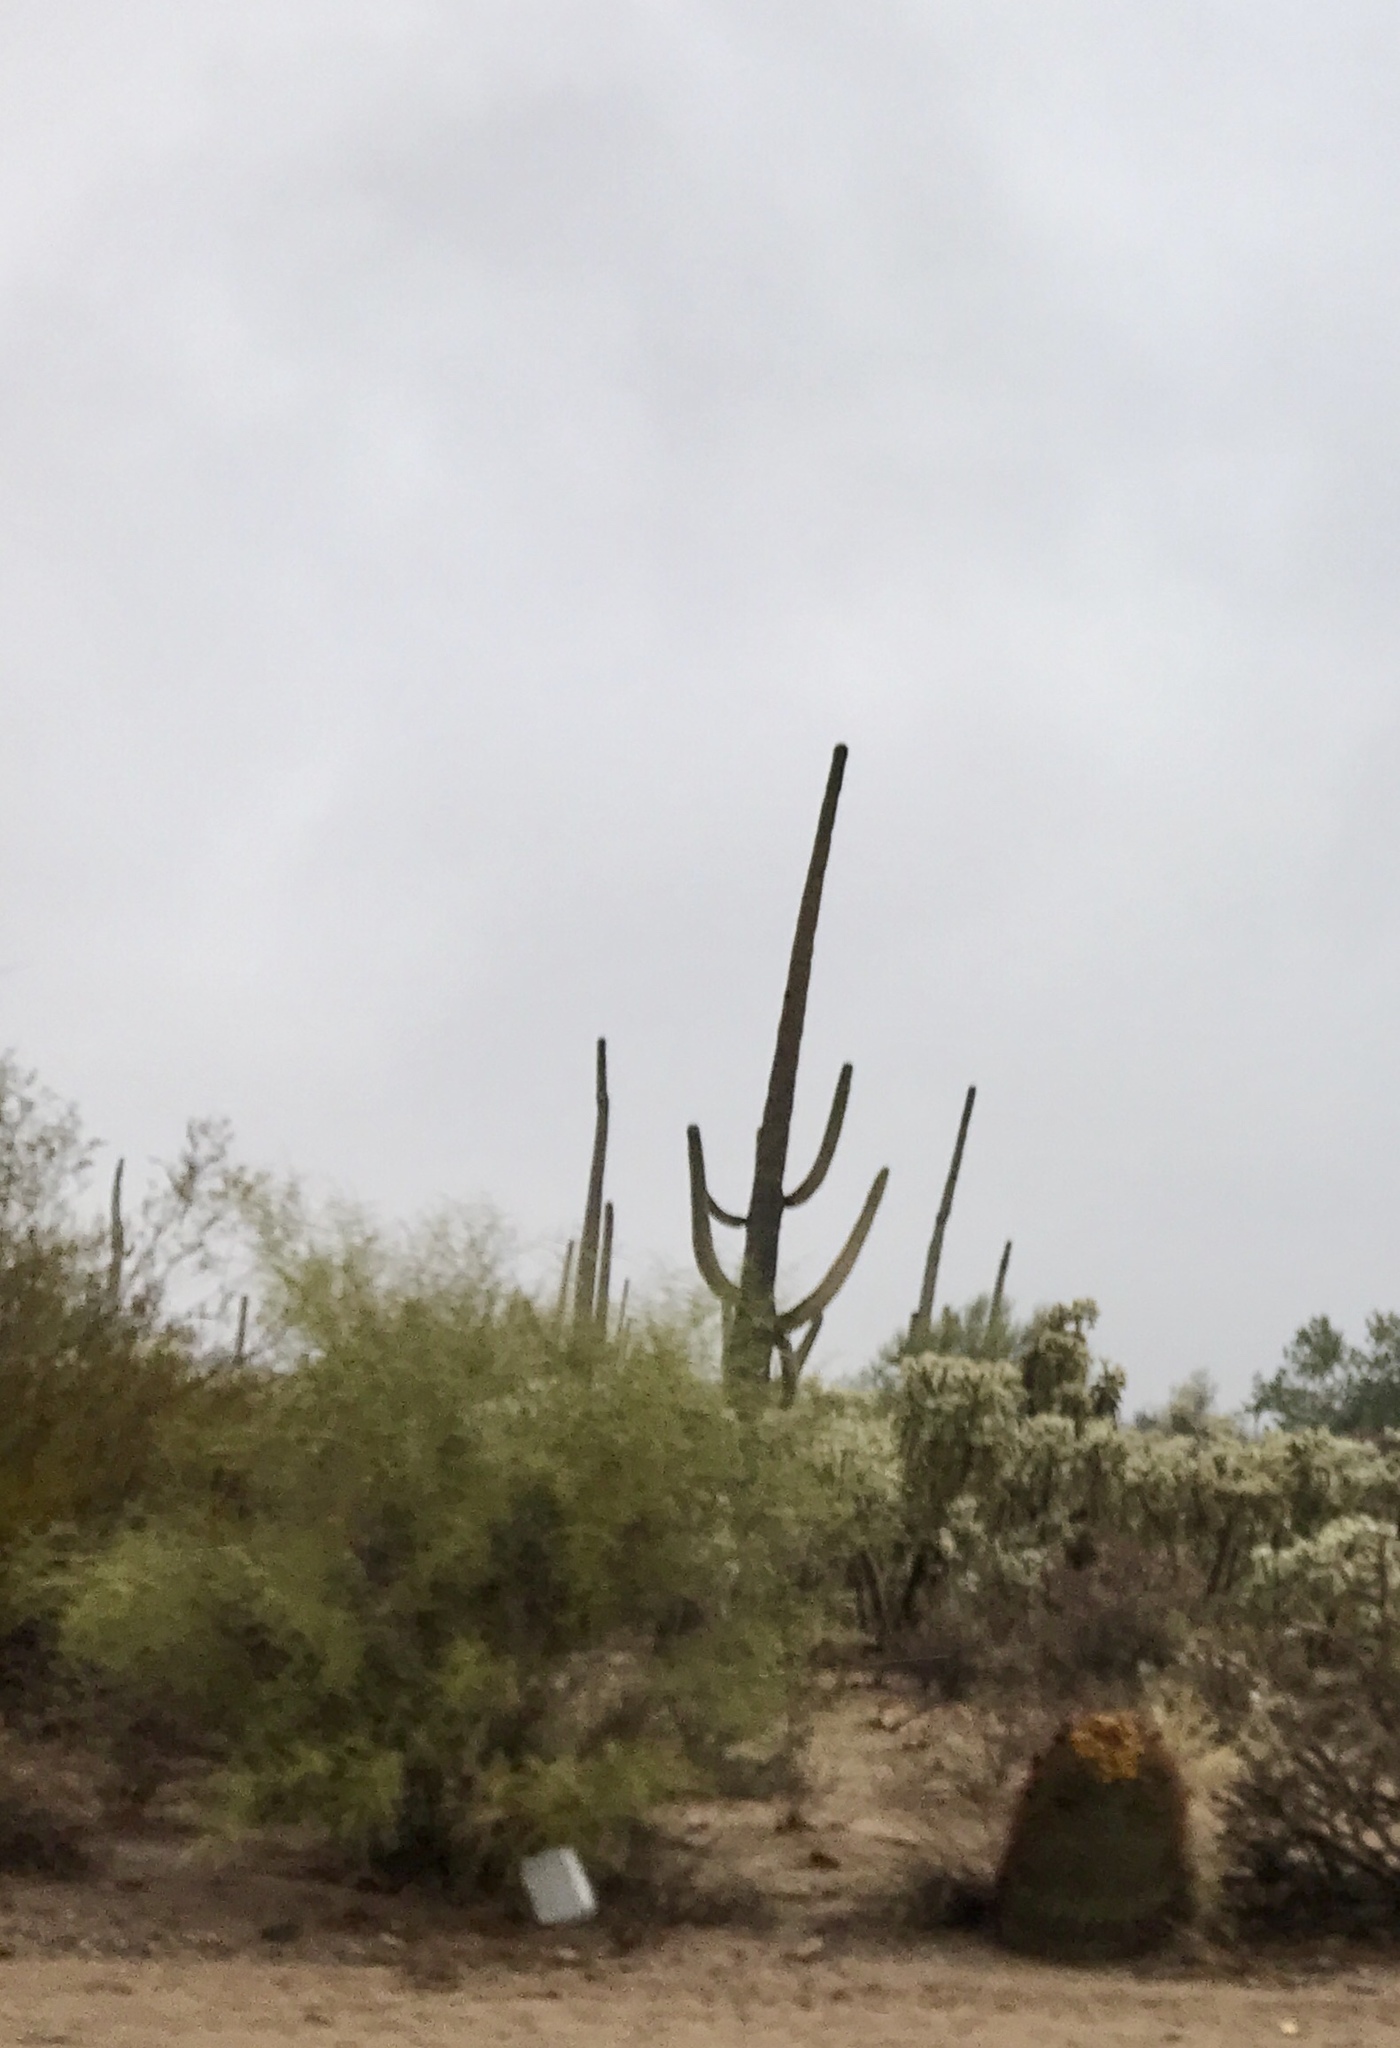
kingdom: Plantae
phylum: Tracheophyta
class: Magnoliopsida
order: Caryophyllales
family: Cactaceae
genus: Carnegiea
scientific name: Carnegiea gigantea
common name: Saguaro
